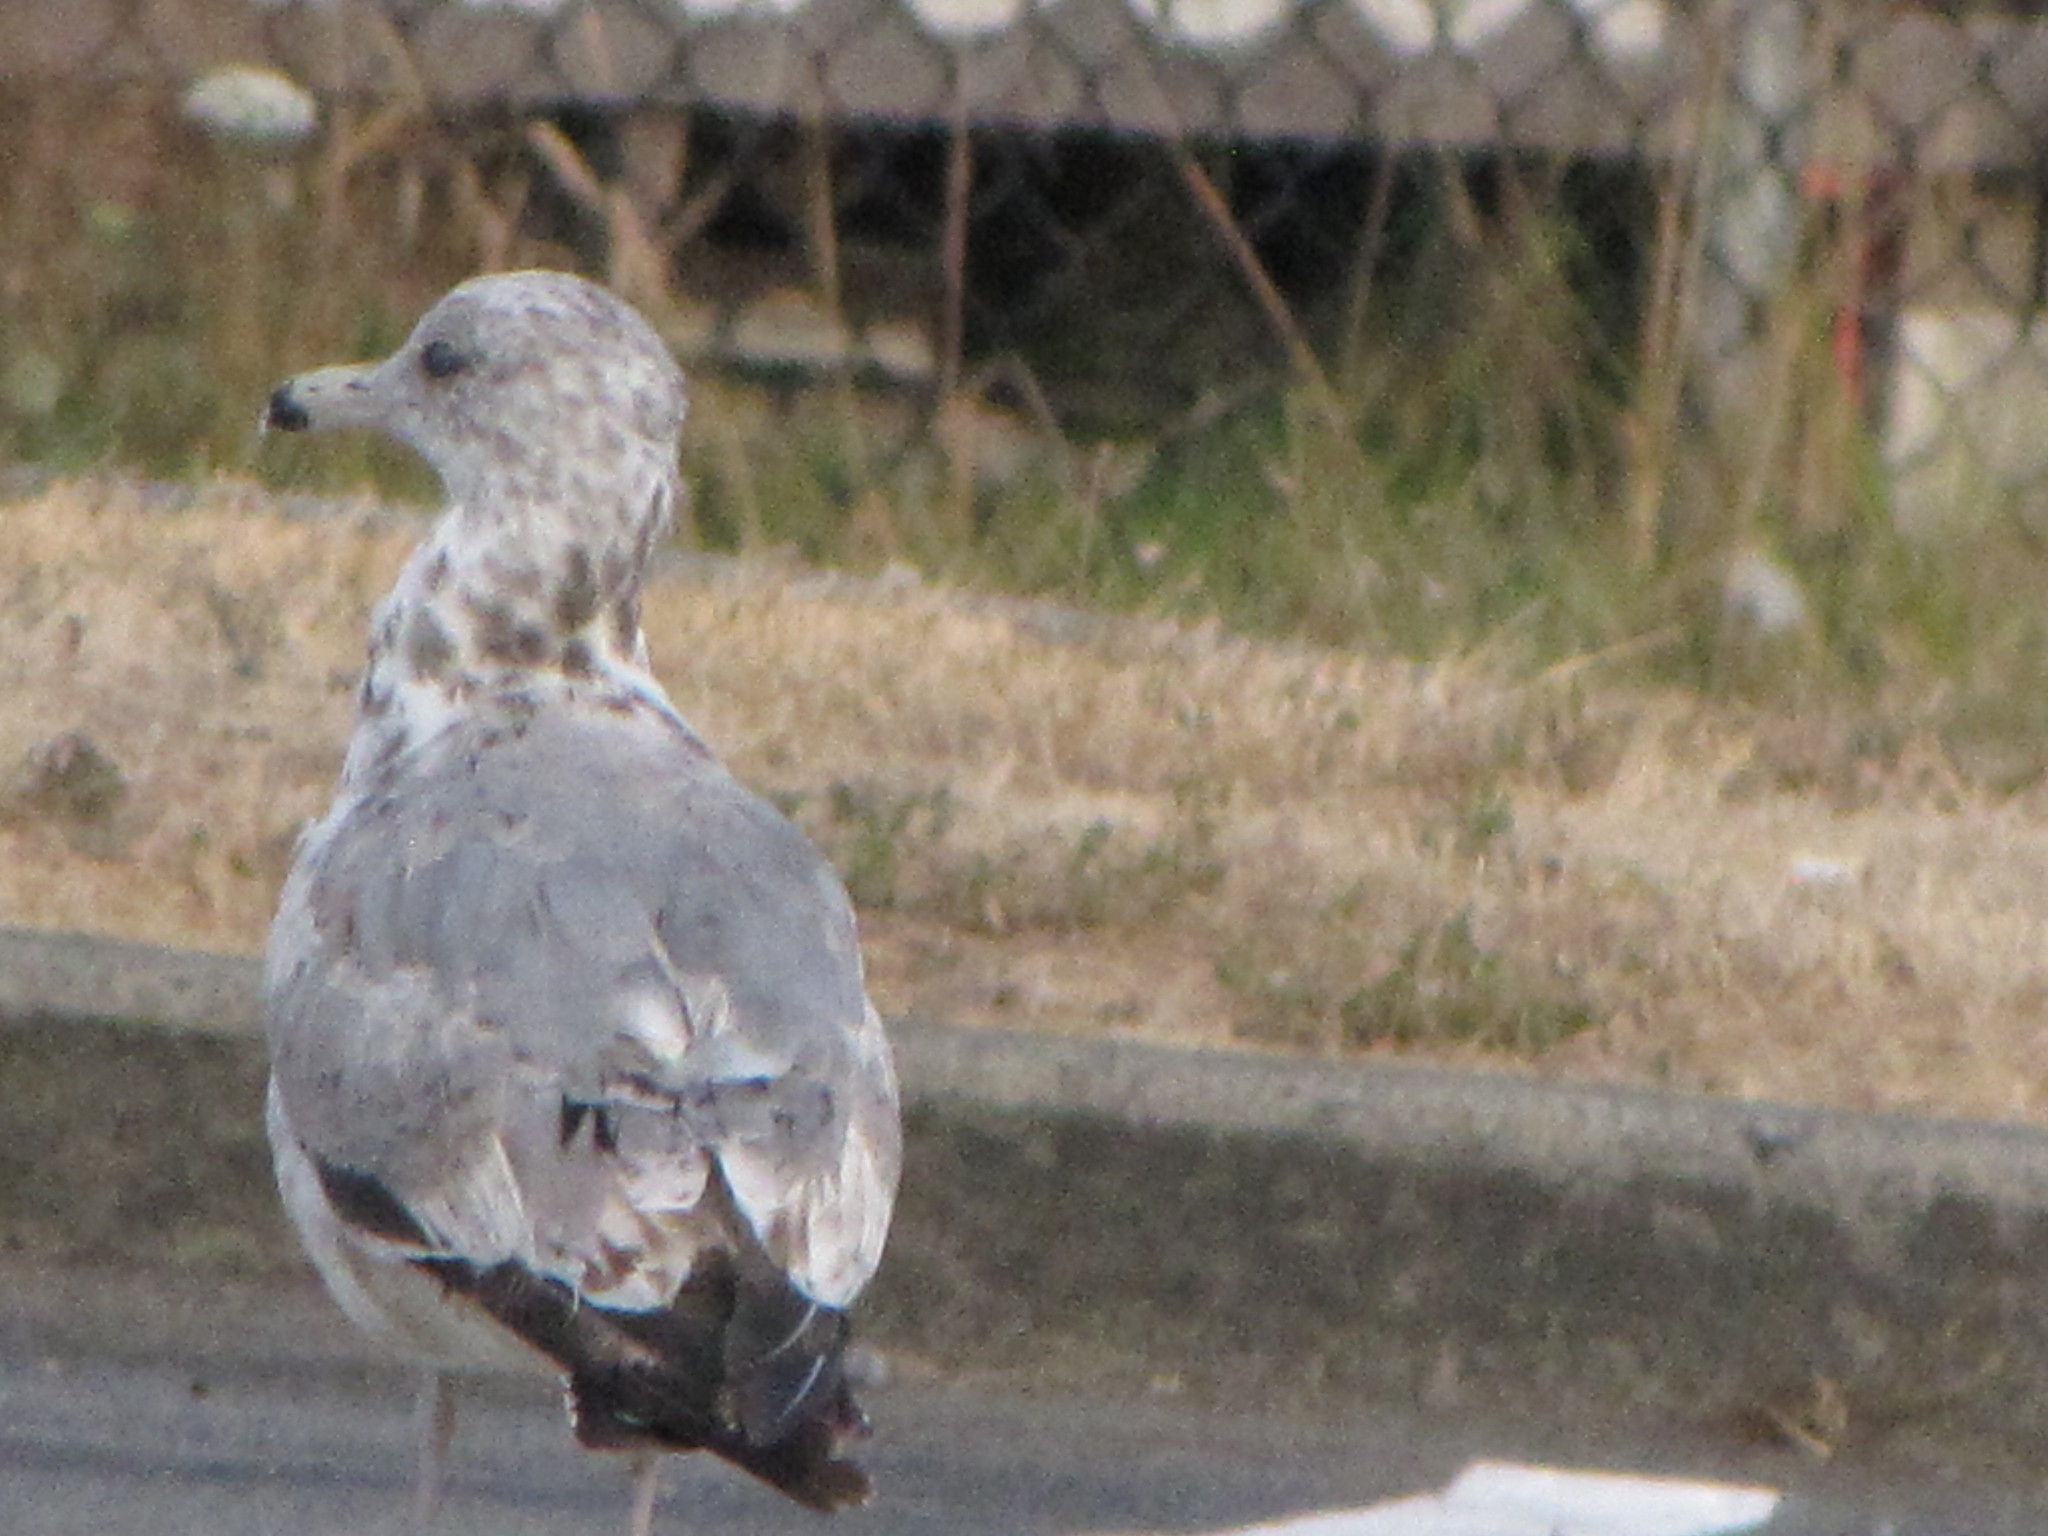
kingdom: Animalia
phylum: Chordata
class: Aves
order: Charadriiformes
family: Laridae
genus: Larus
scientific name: Larus californicus
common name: California gull
